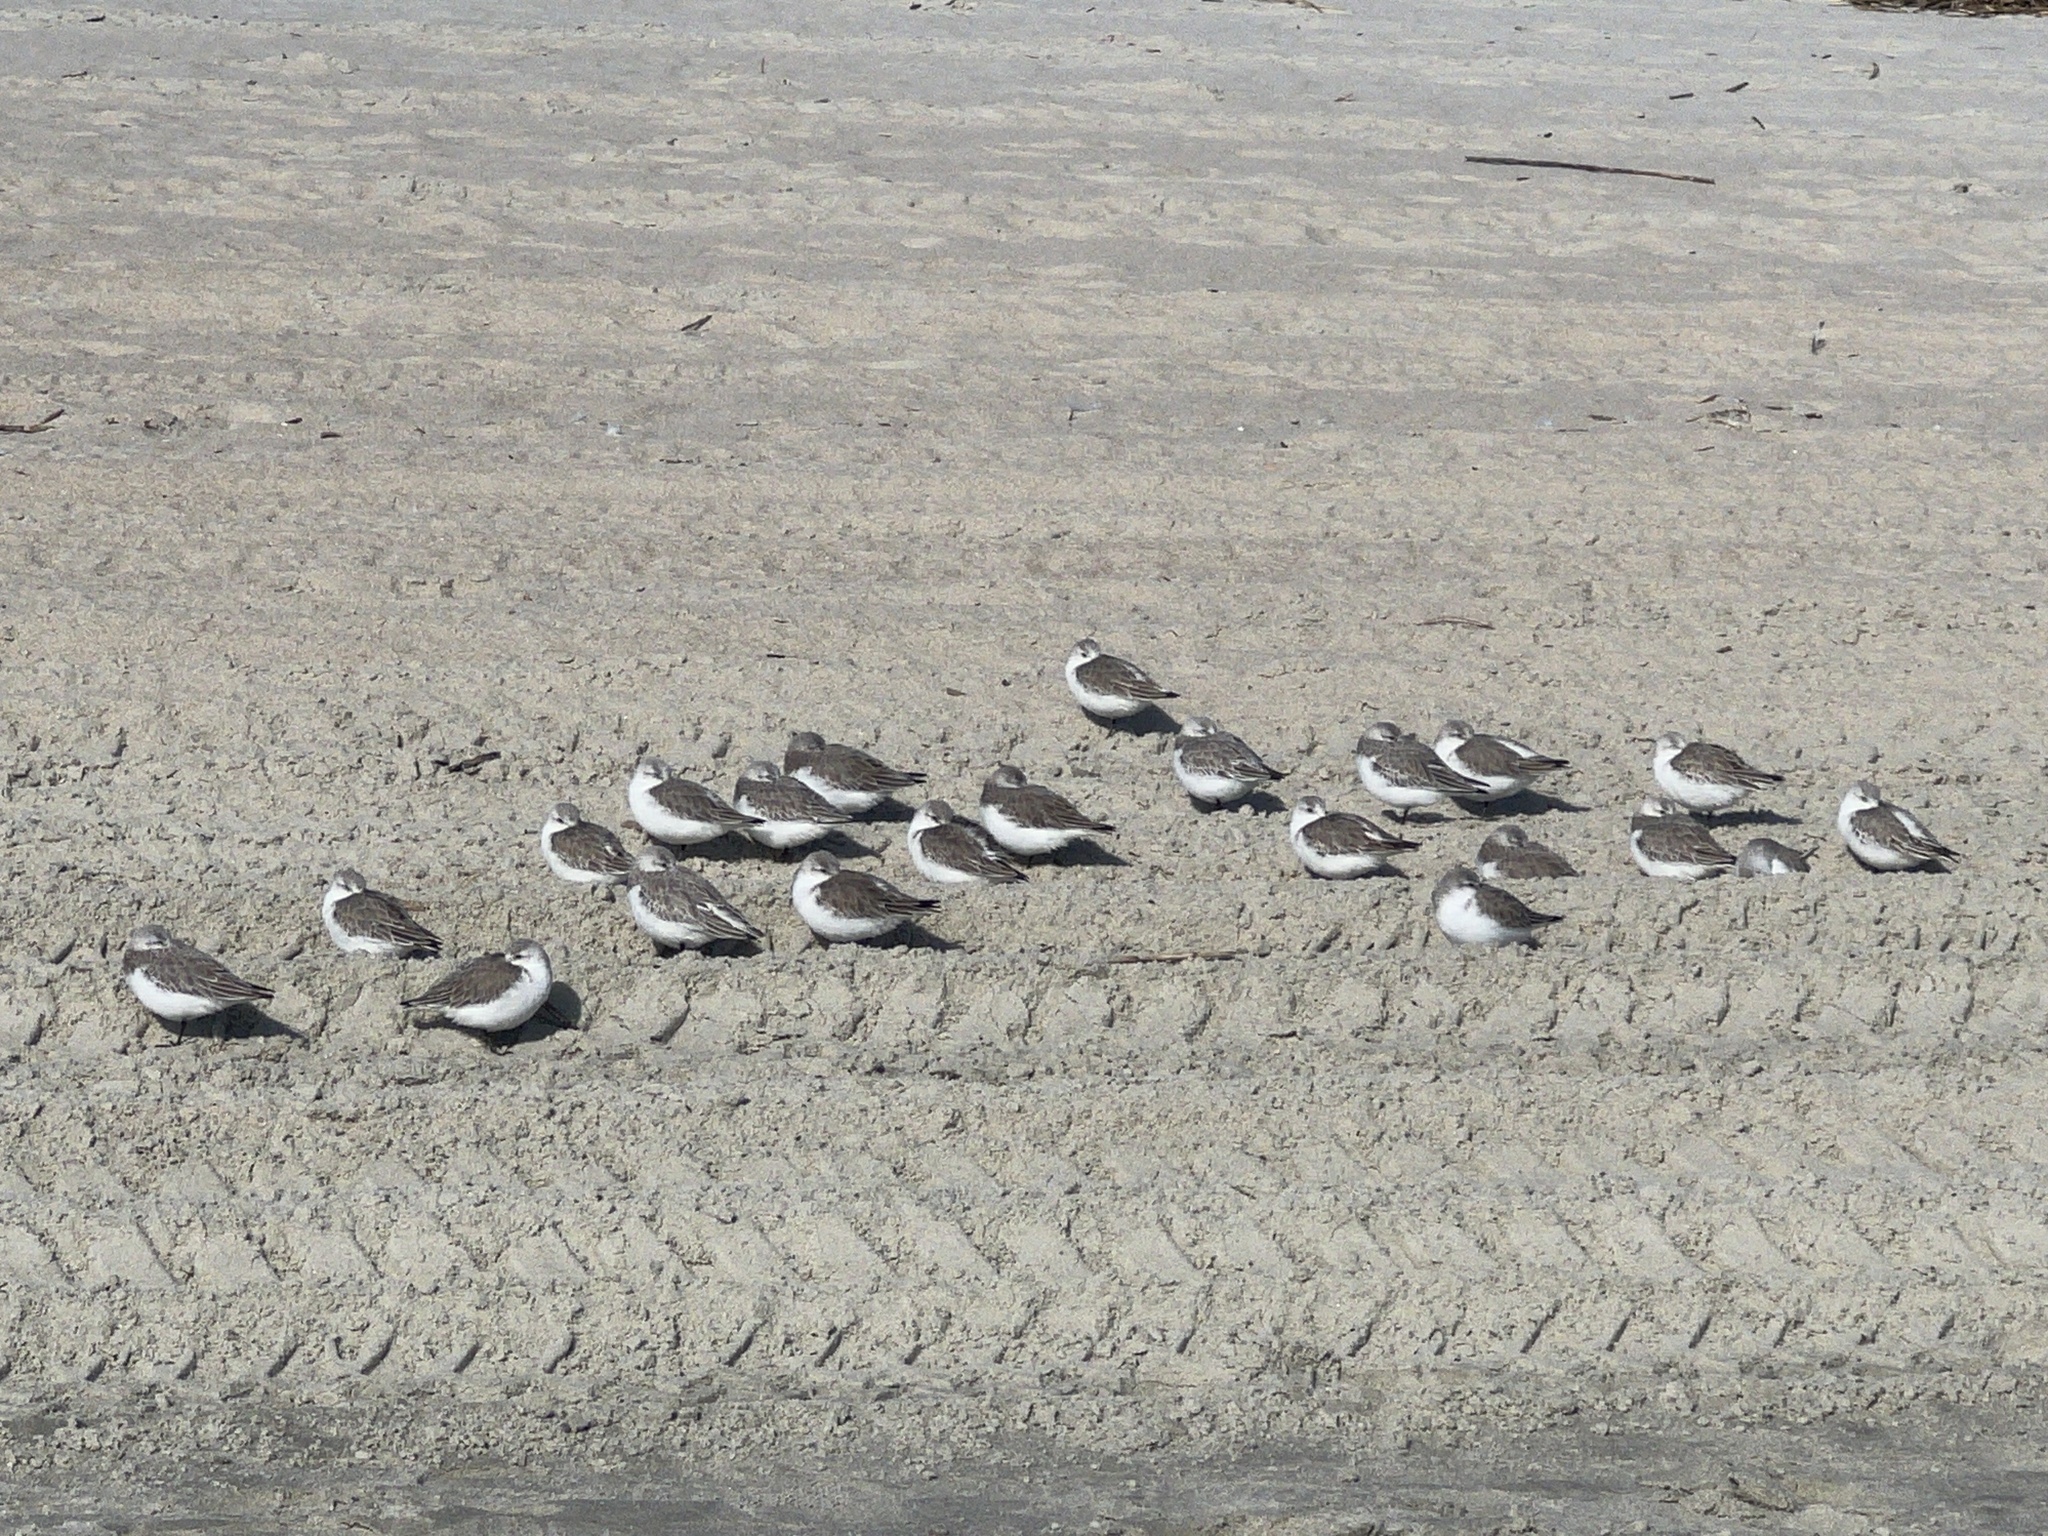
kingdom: Animalia
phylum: Chordata
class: Aves
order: Charadriiformes
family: Scolopacidae
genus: Calidris
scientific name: Calidris alba
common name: Sanderling
